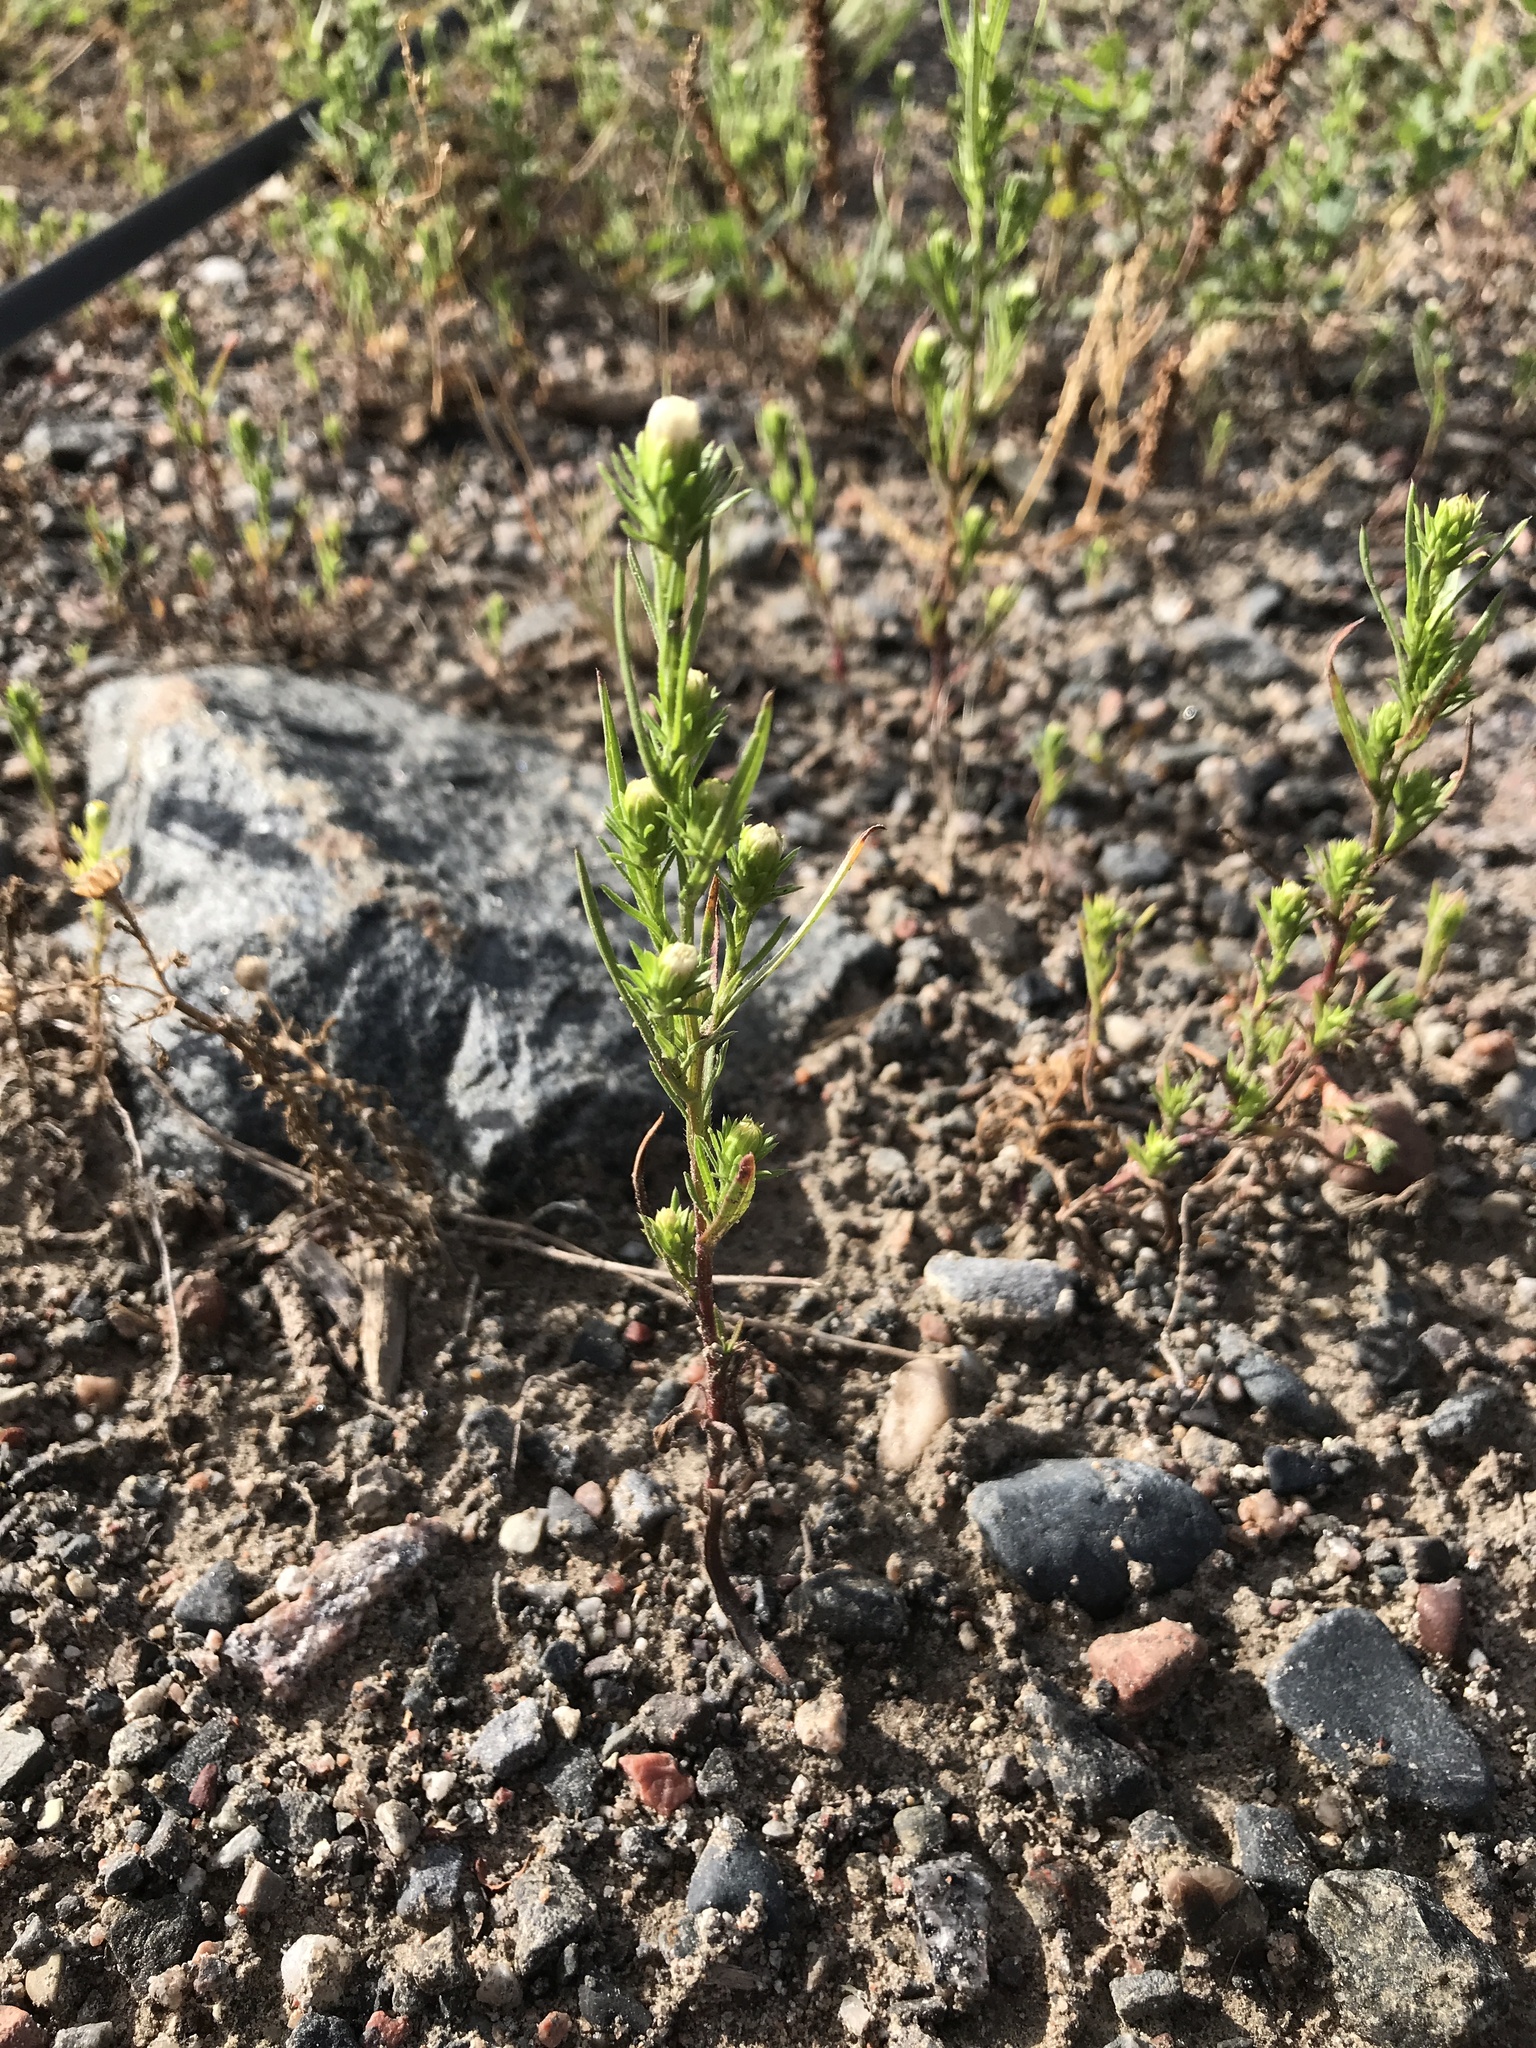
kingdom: Plantae
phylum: Tracheophyta
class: Magnoliopsida
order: Asterales
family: Asteraceae
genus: Symphyotrichum
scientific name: Symphyotrichum ciliatum
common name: Rayless annual aster
